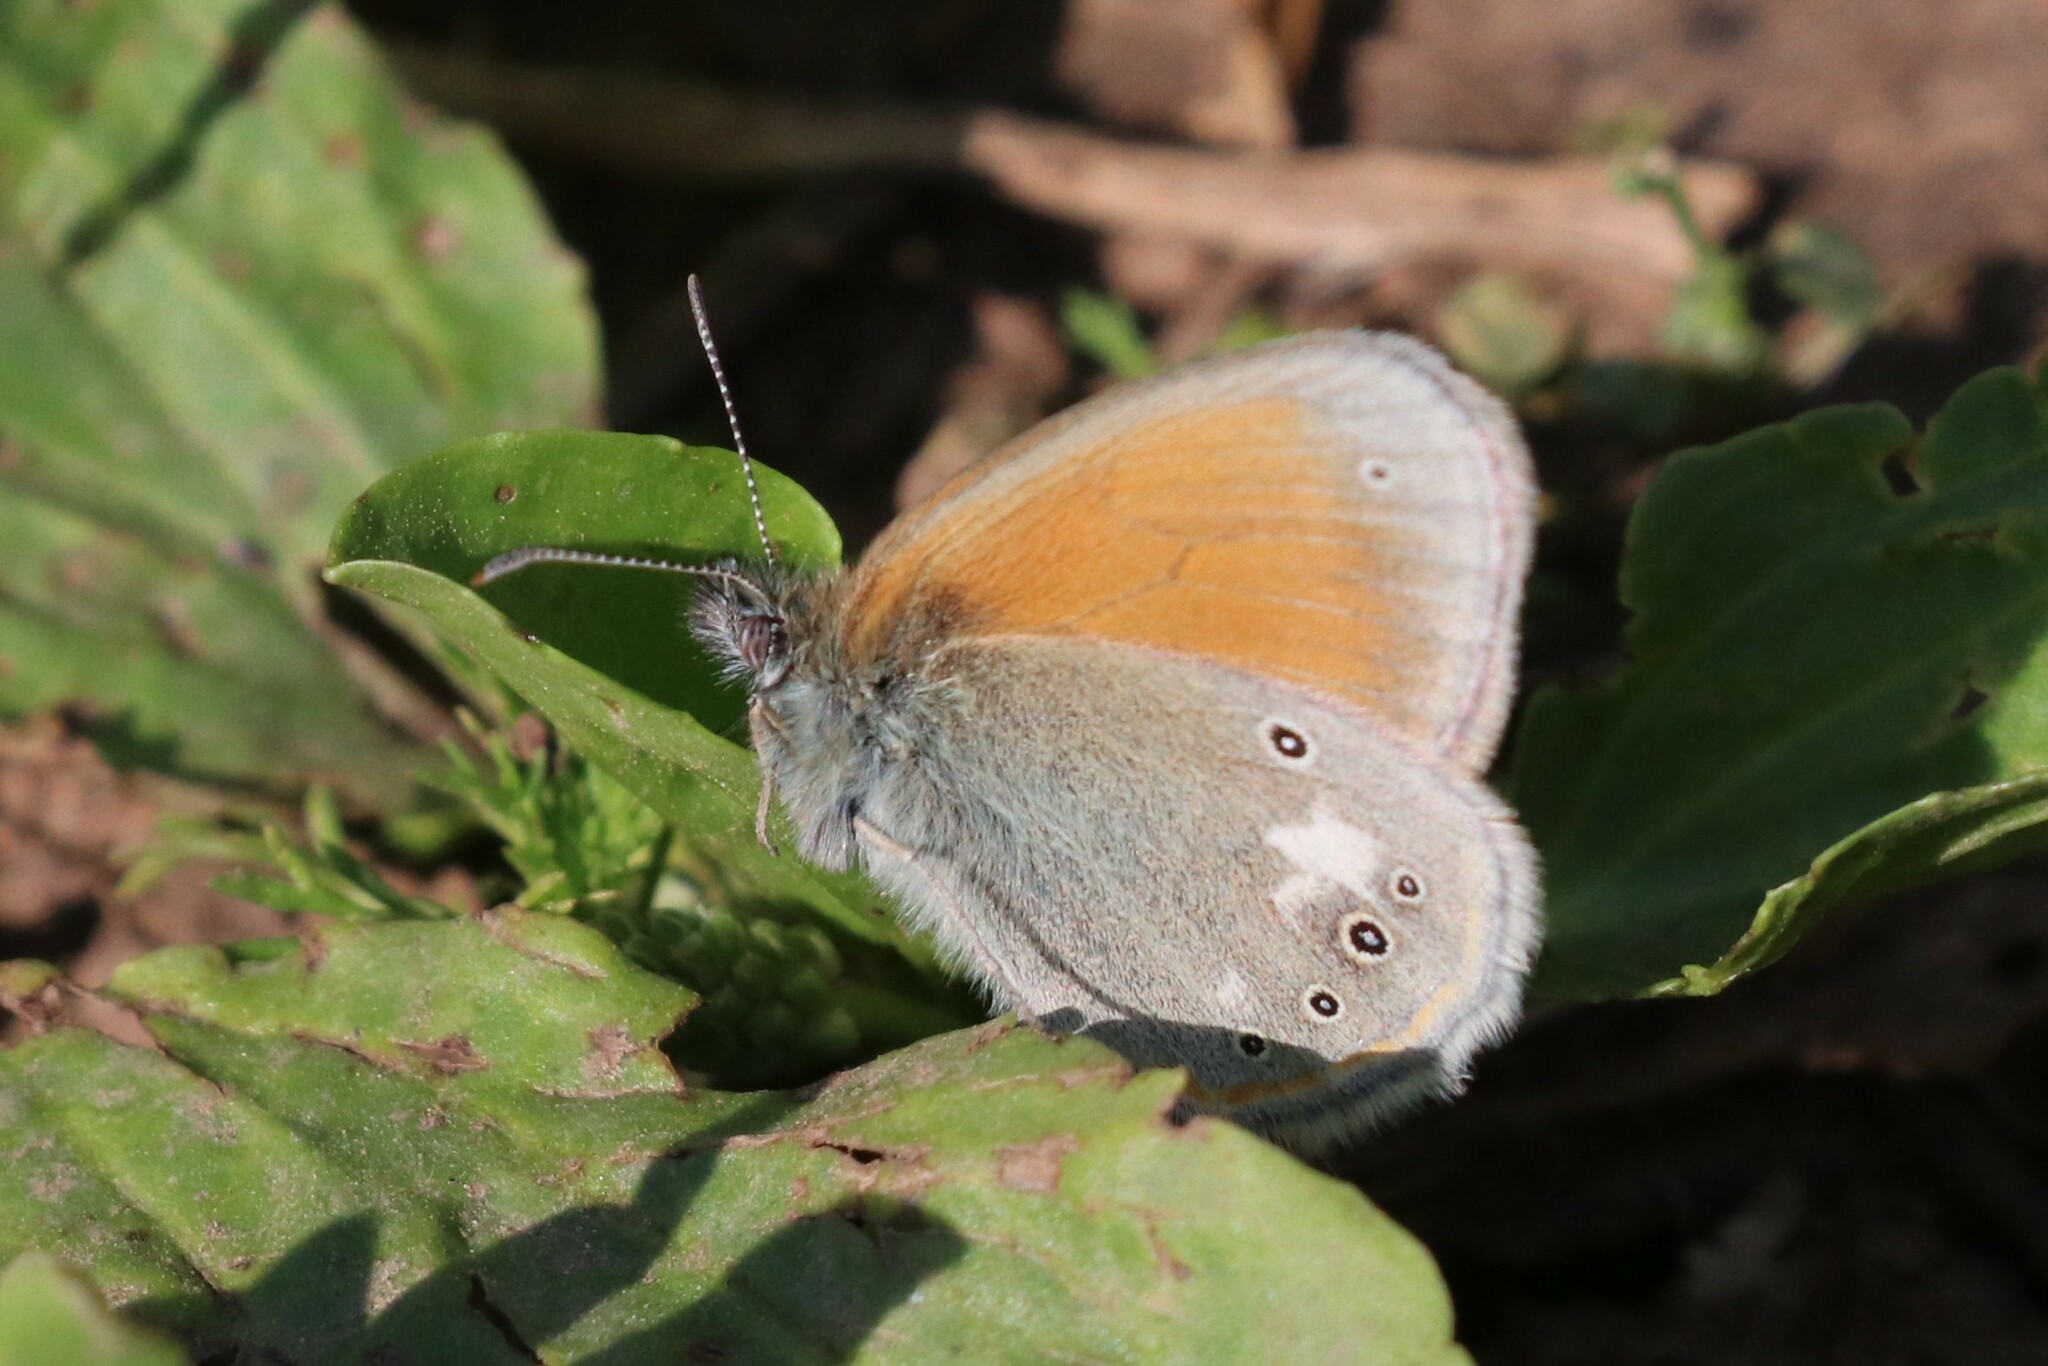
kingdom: Animalia
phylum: Arthropoda
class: Insecta
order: Lepidoptera
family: Nymphalidae
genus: Coenonympha
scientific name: Coenonympha iphis
